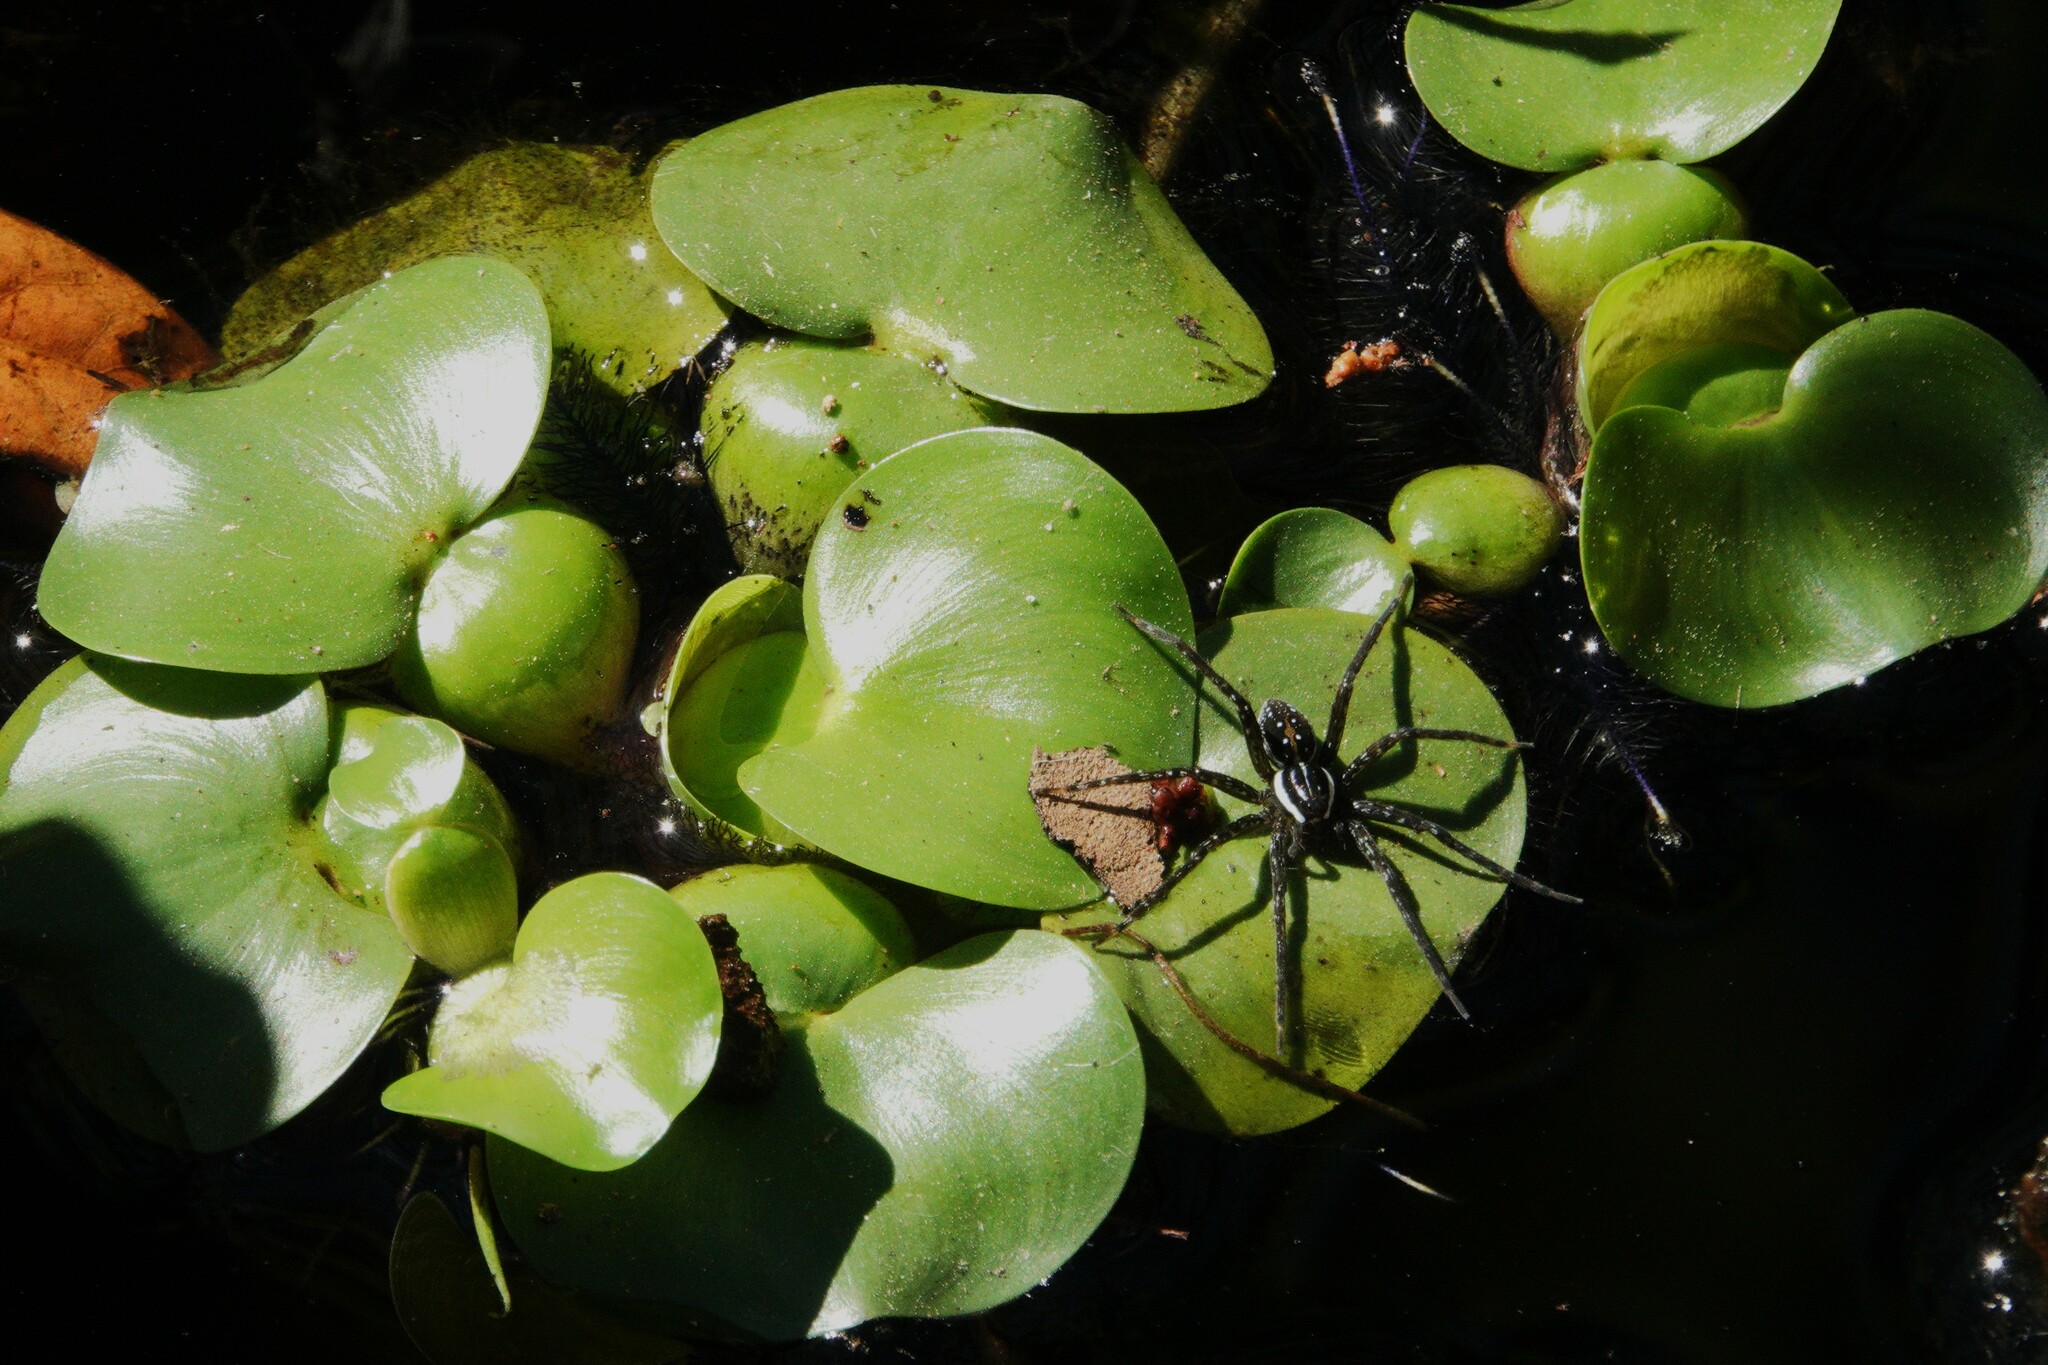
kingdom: Animalia
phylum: Arthropoda
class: Arachnida
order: Araneae
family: Pisauridae
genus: Dolomedes
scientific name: Dolomedes triton
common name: Six-spotted fishing spider
